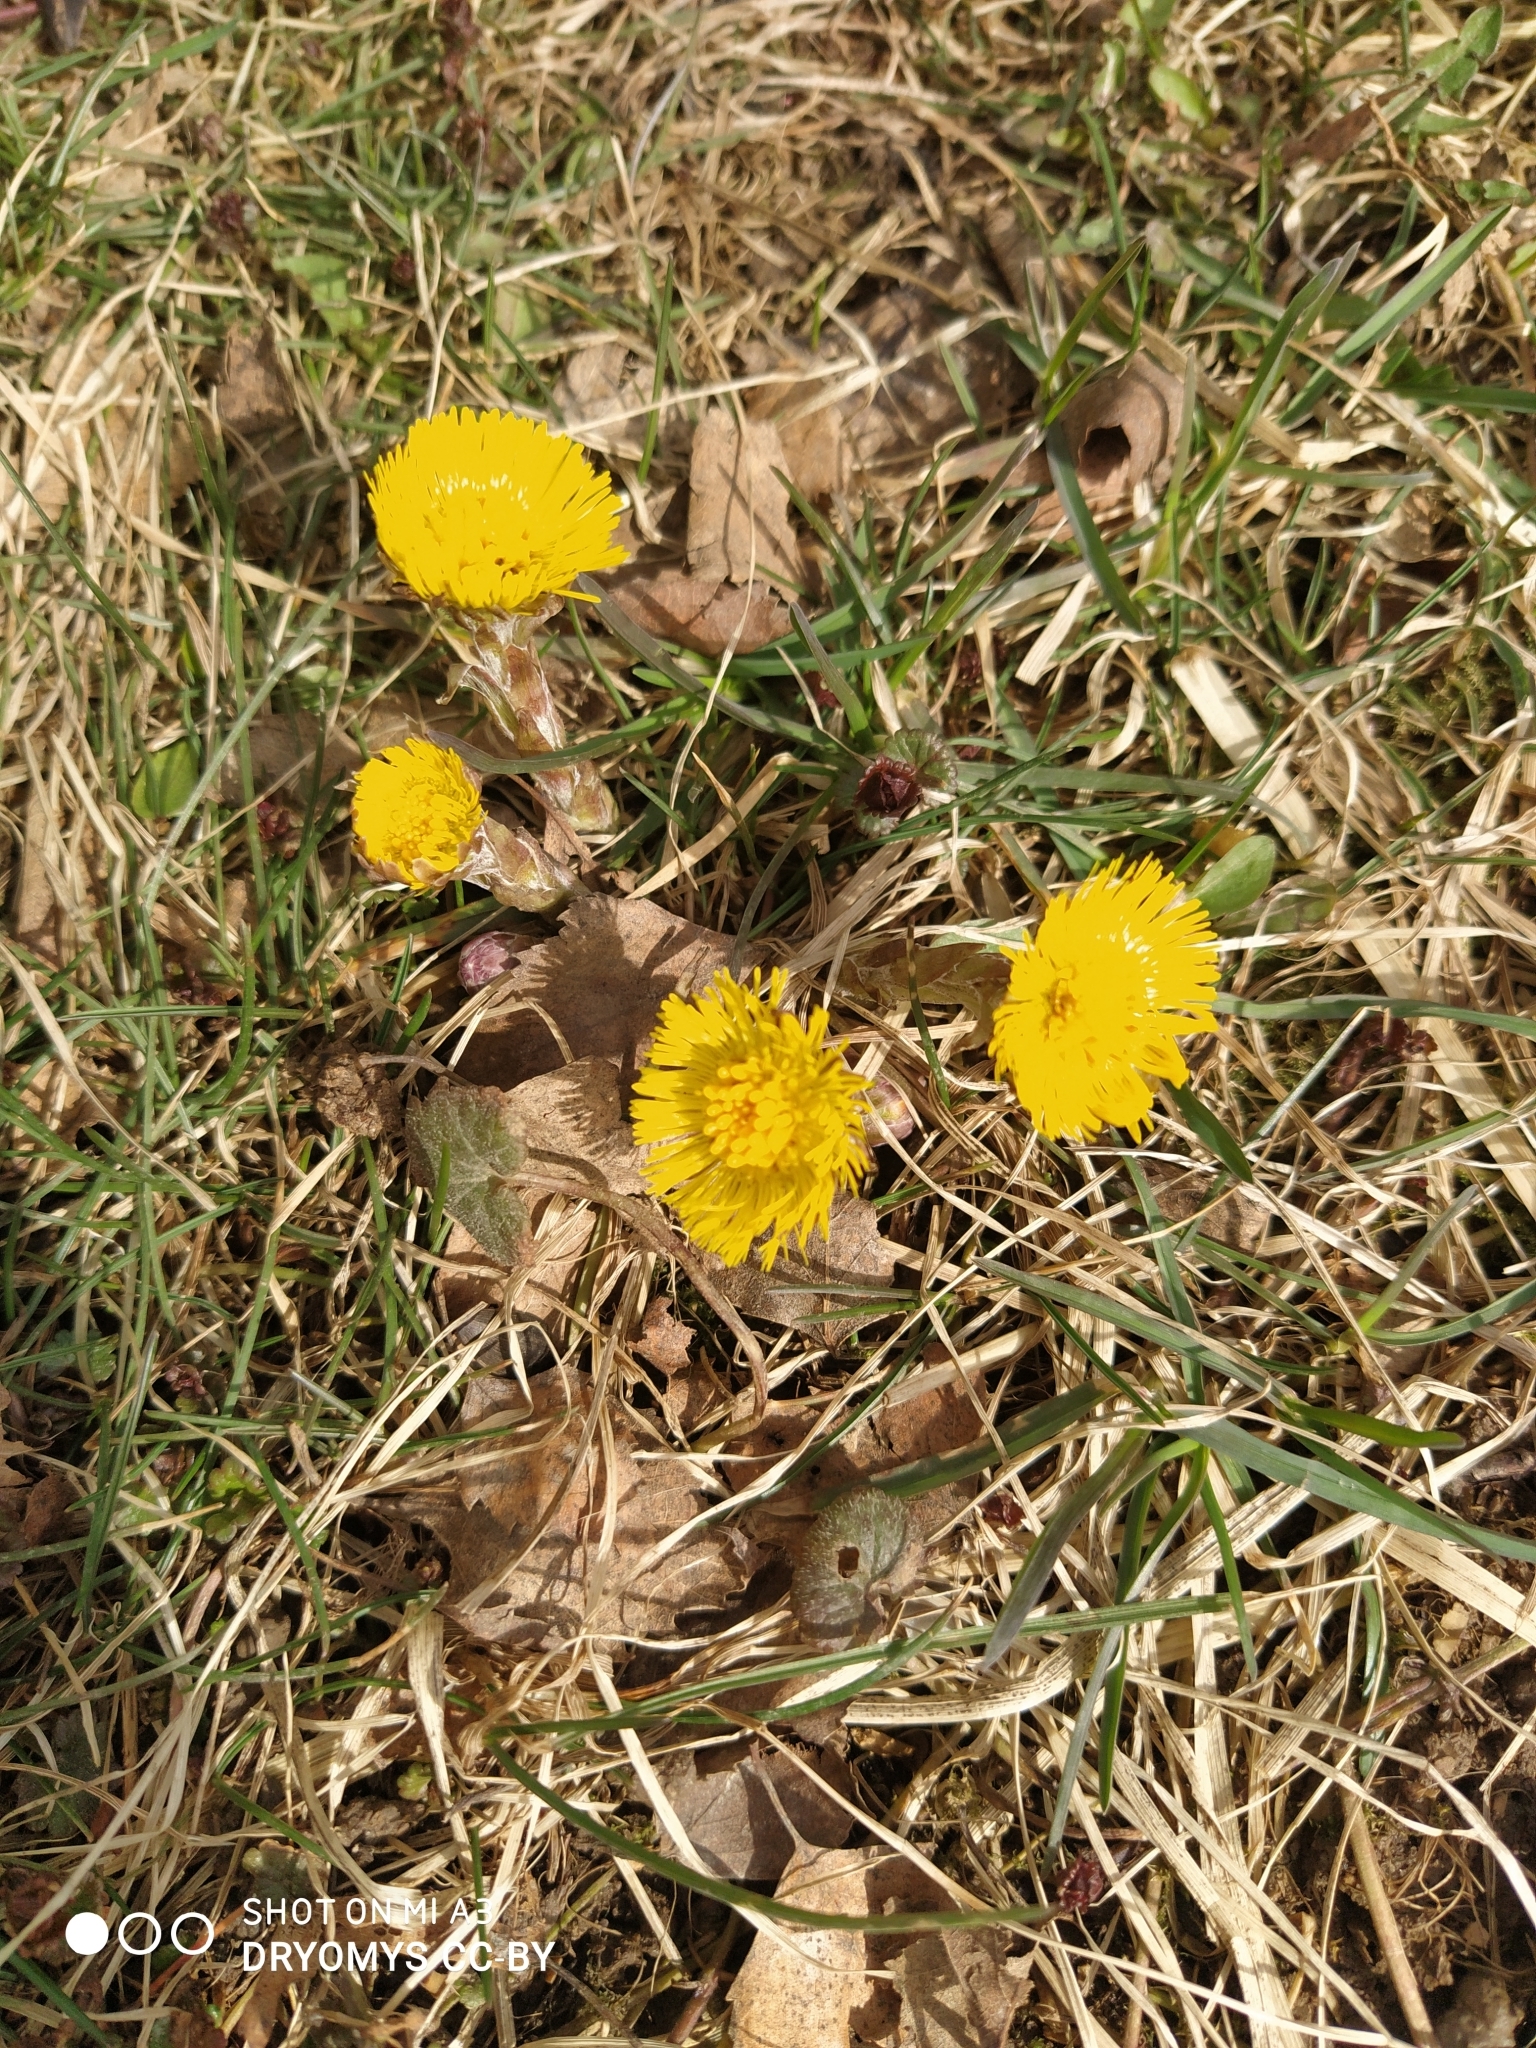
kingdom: Plantae
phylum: Tracheophyta
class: Magnoliopsida
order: Asterales
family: Asteraceae
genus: Tussilago
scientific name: Tussilago farfara
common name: Coltsfoot
